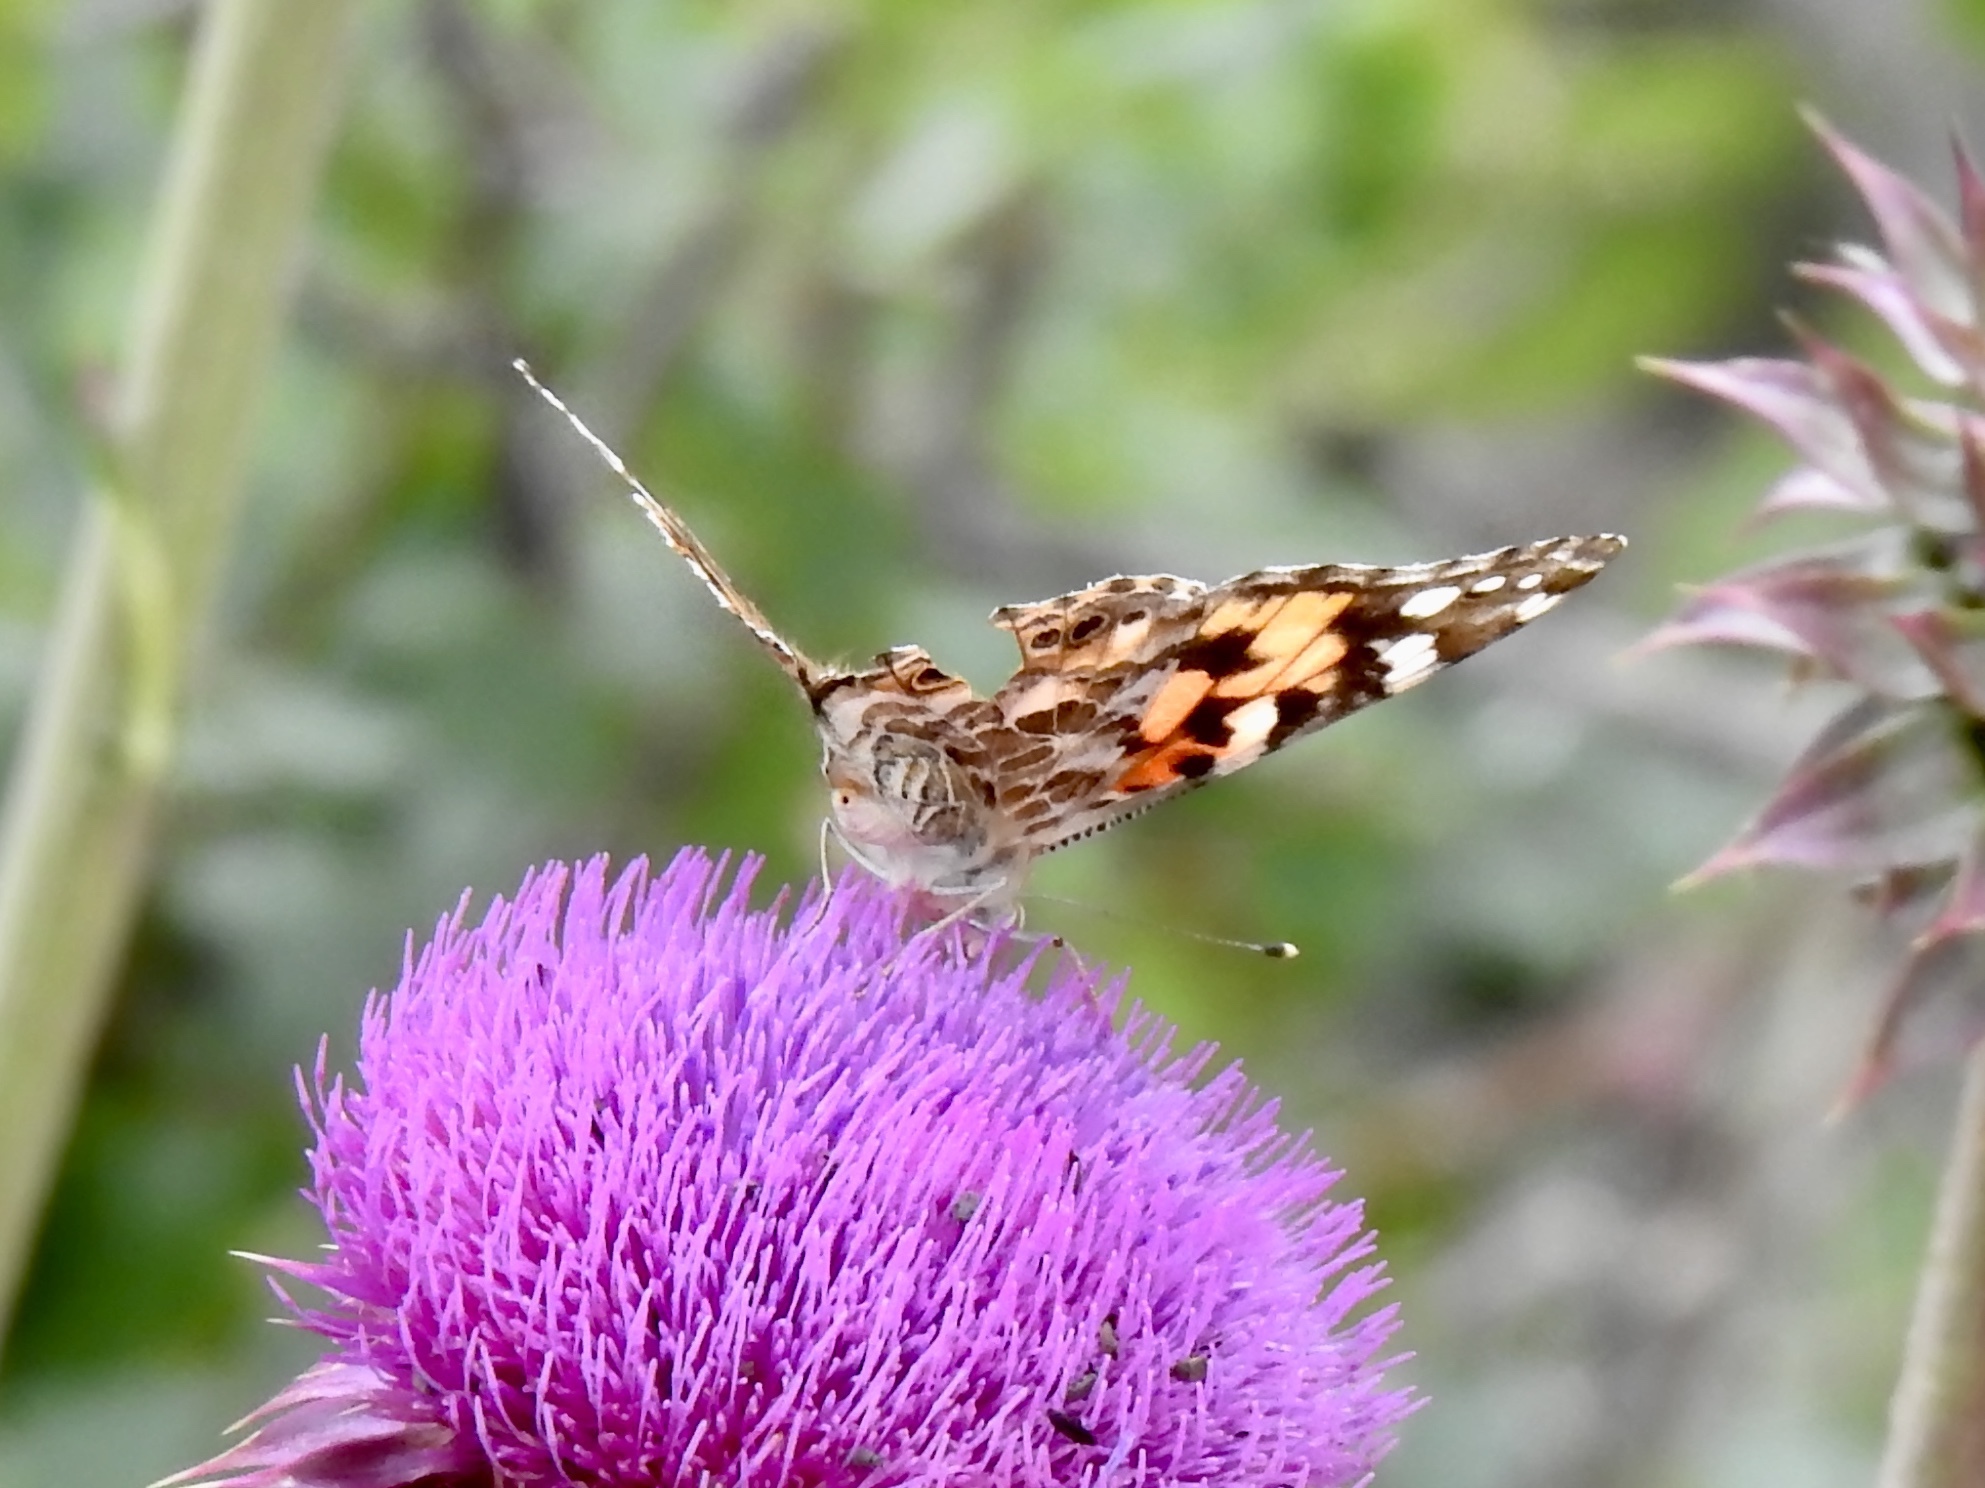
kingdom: Animalia
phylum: Arthropoda
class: Insecta
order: Lepidoptera
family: Nymphalidae
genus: Vanessa
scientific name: Vanessa cardui
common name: Painted lady
